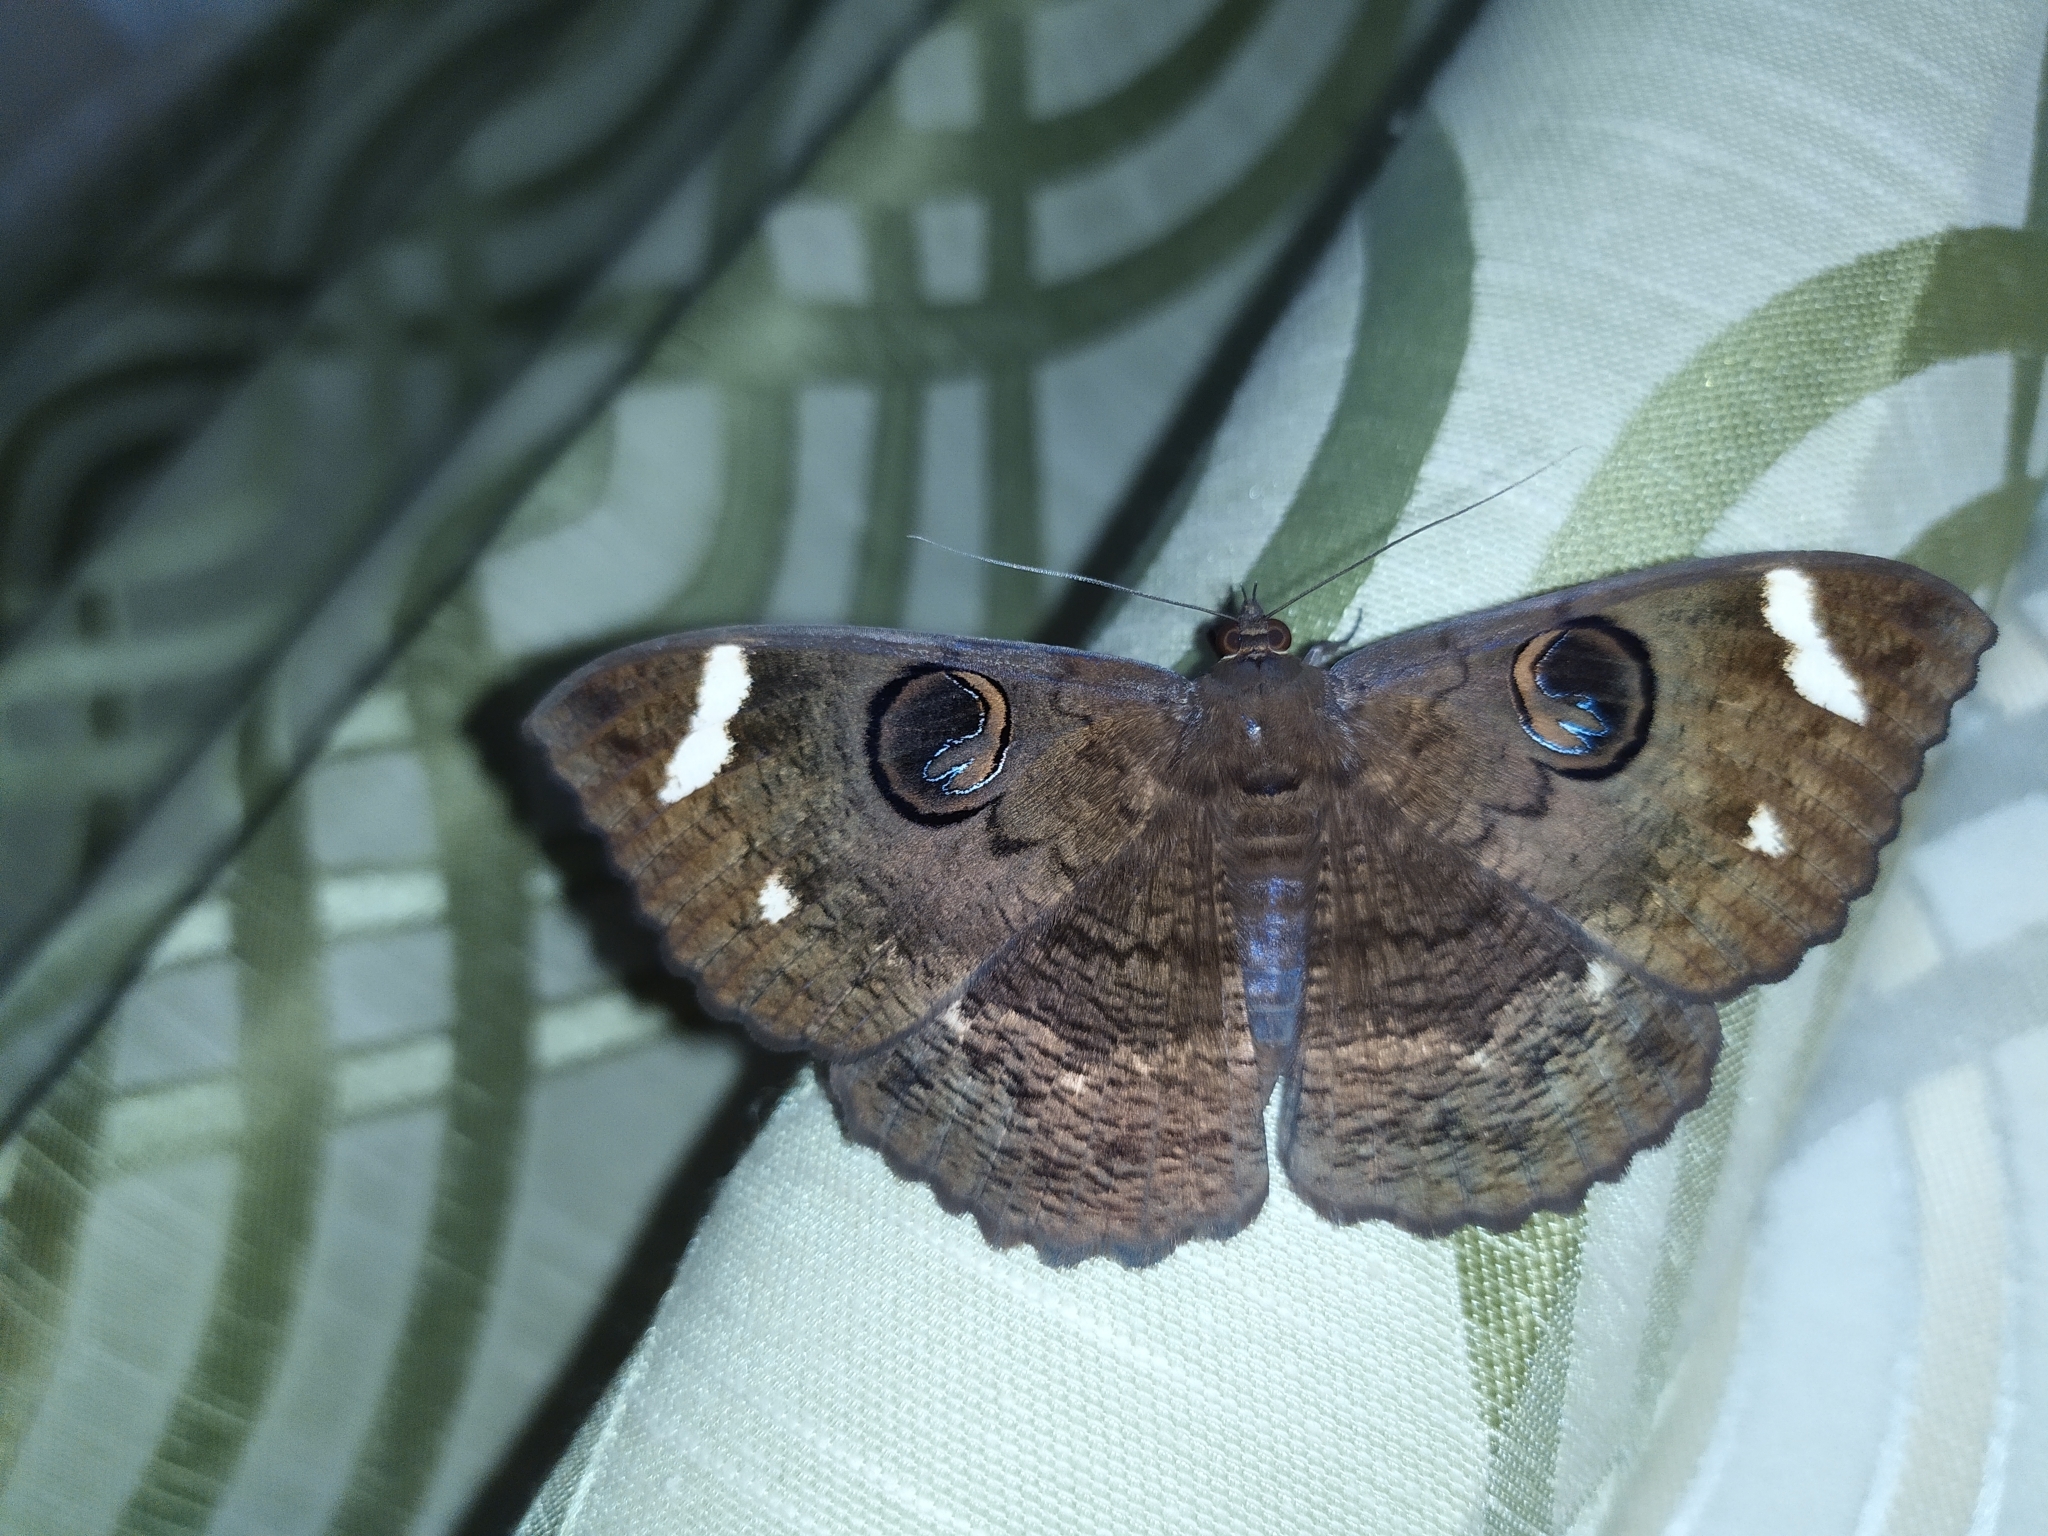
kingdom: Animalia
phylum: Arthropoda
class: Insecta
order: Lepidoptera
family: Erebidae
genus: Erebus
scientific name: Erebus hieroglyphica
